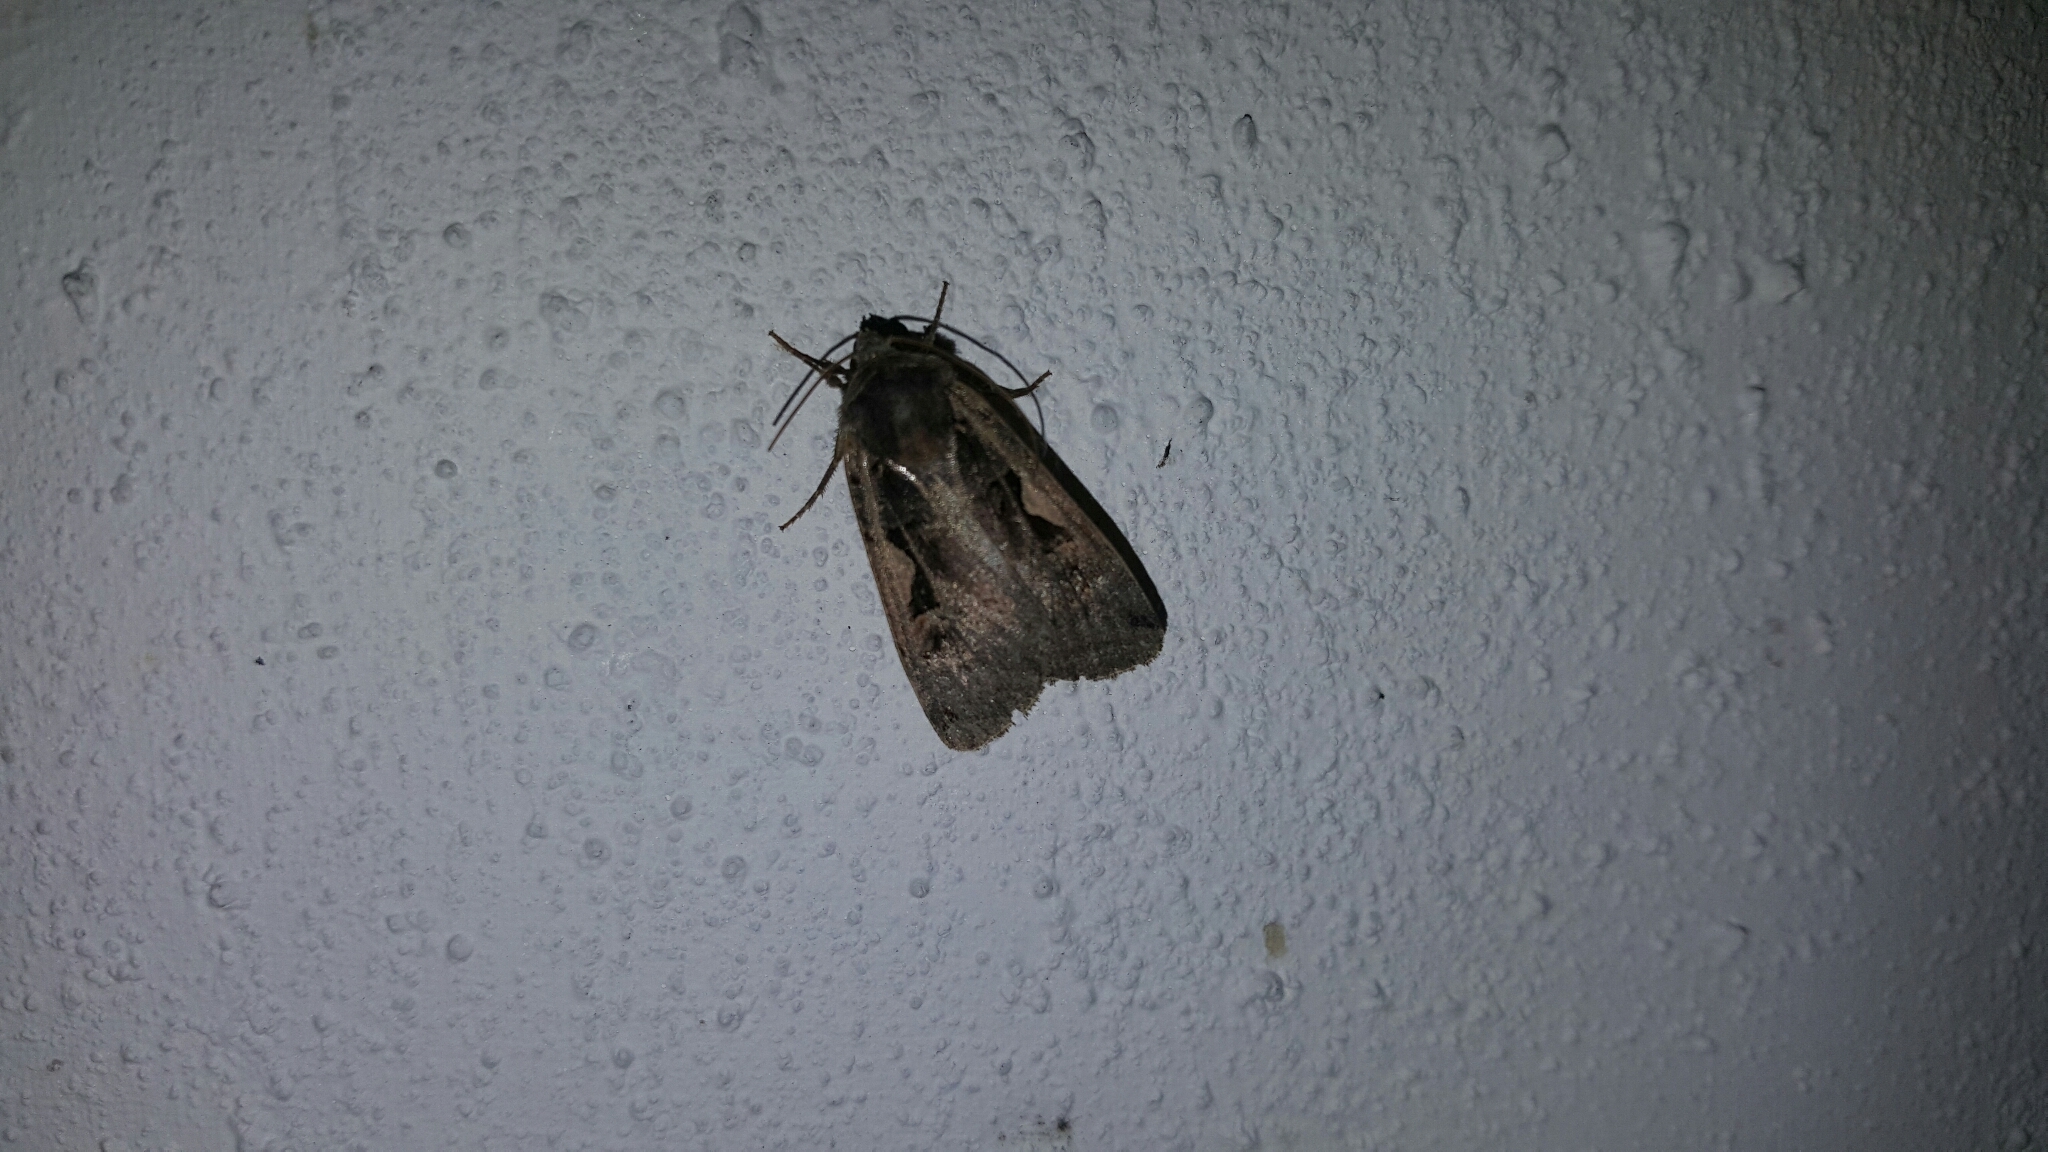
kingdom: Animalia
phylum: Arthropoda
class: Insecta
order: Lepidoptera
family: Noctuidae
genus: Xestia
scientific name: Xestia c-nigrum
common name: Setaceous hebrew character
